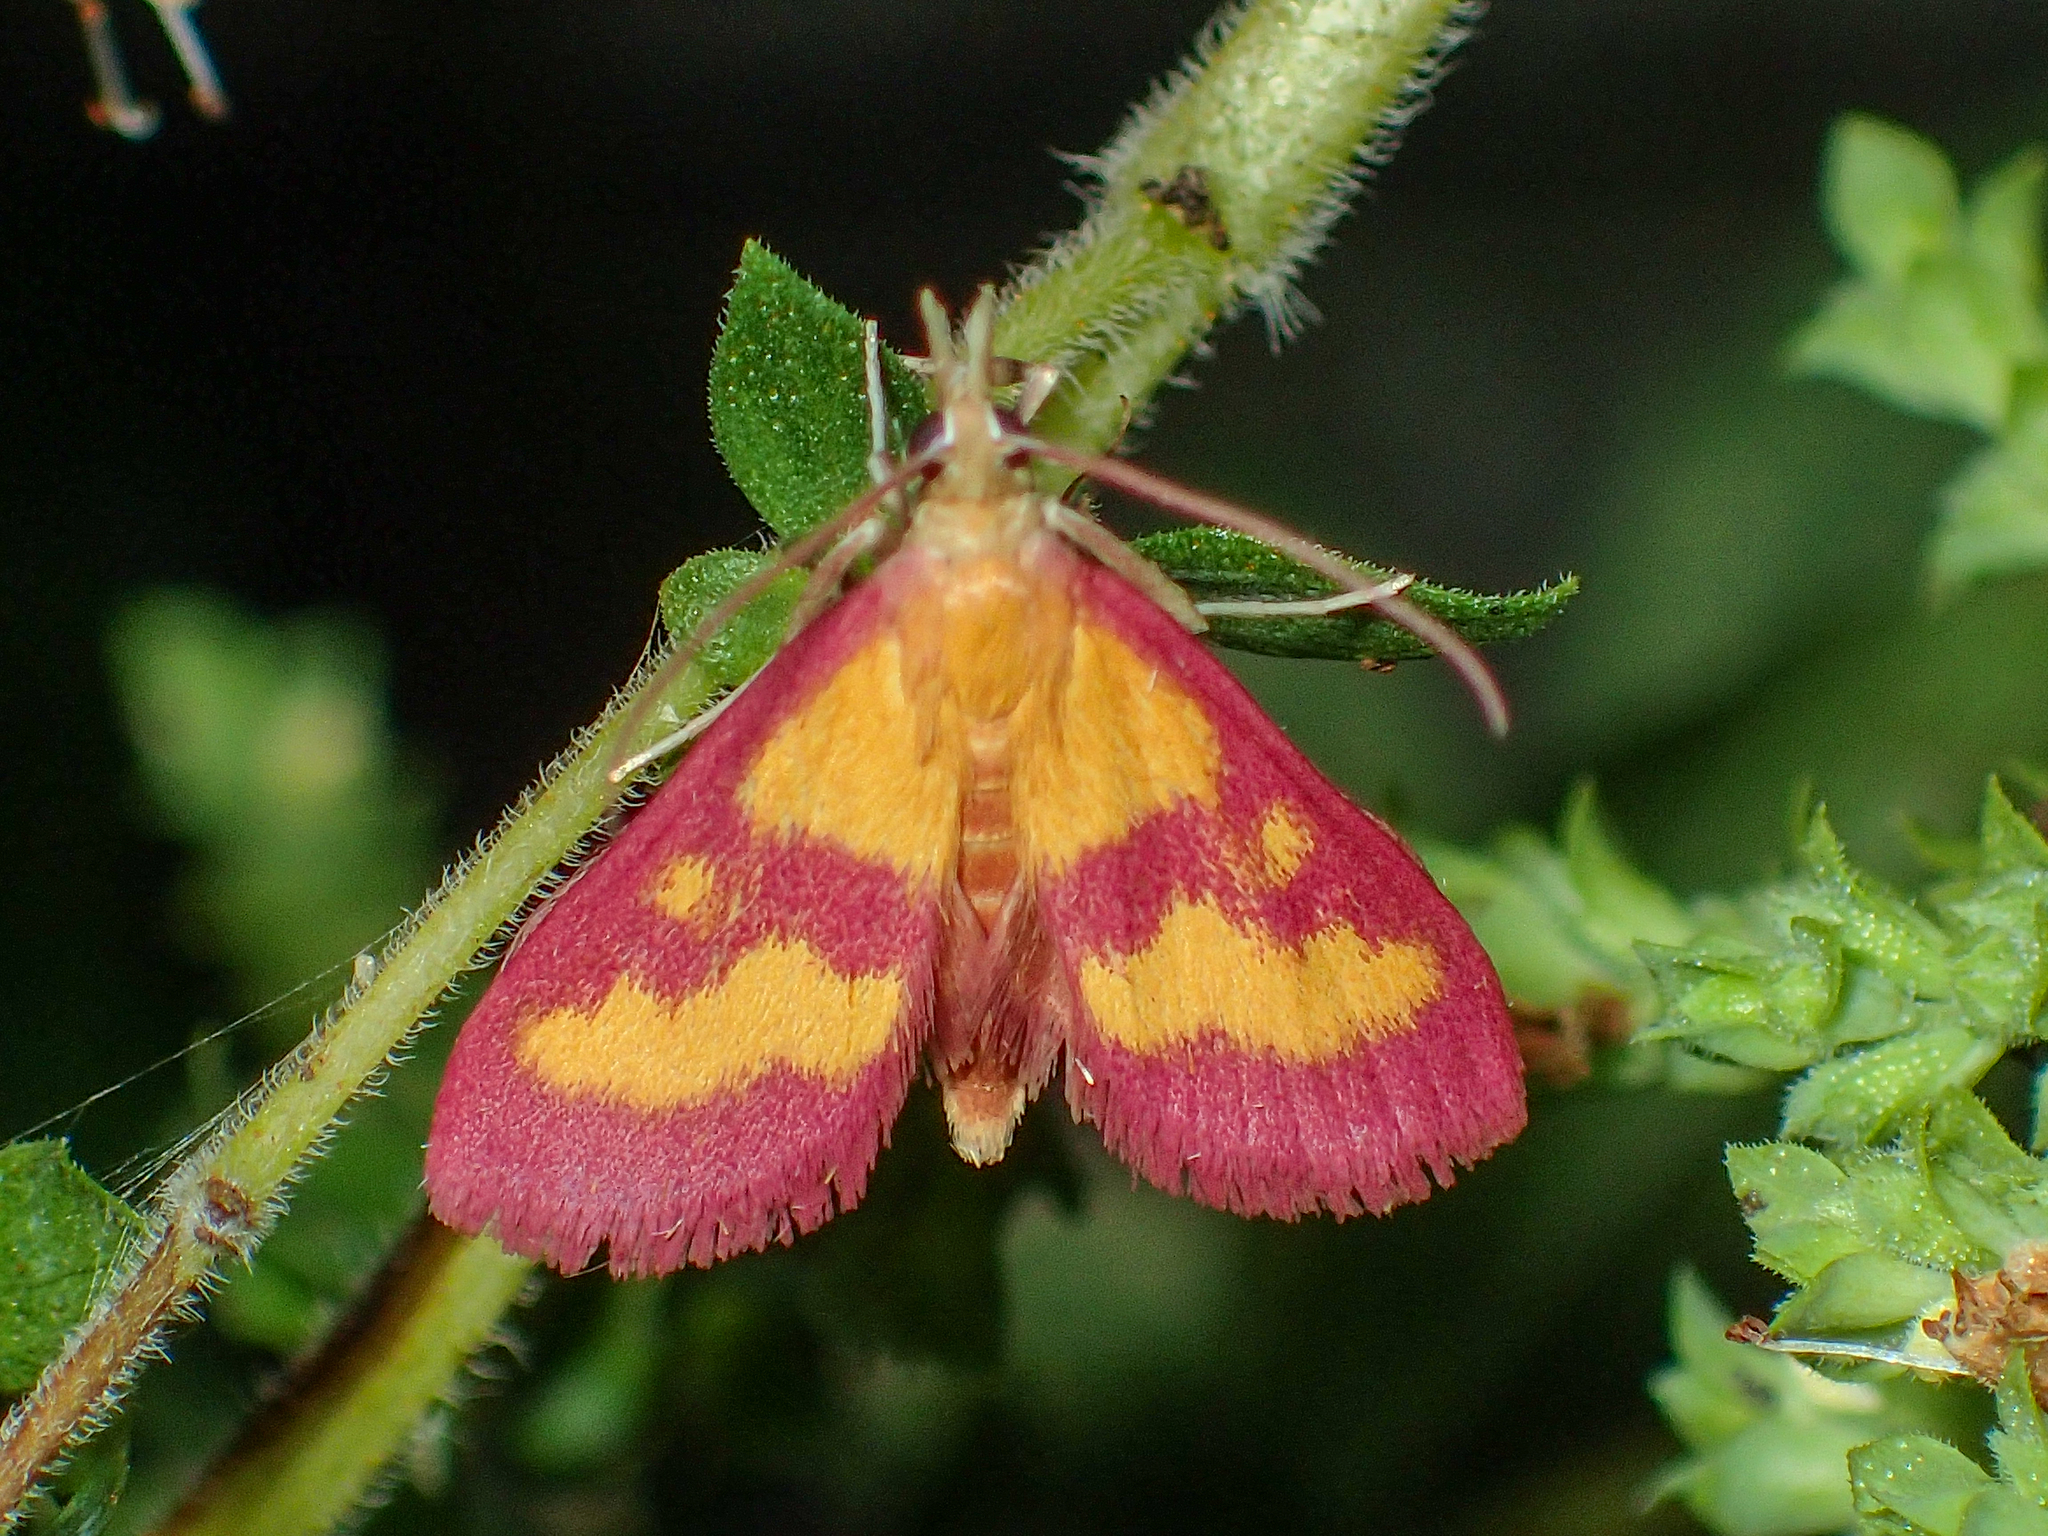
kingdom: Animalia
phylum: Arthropoda
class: Insecta
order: Lepidoptera
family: Crambidae
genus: Pyrausta
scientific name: Pyrausta laticlavia
